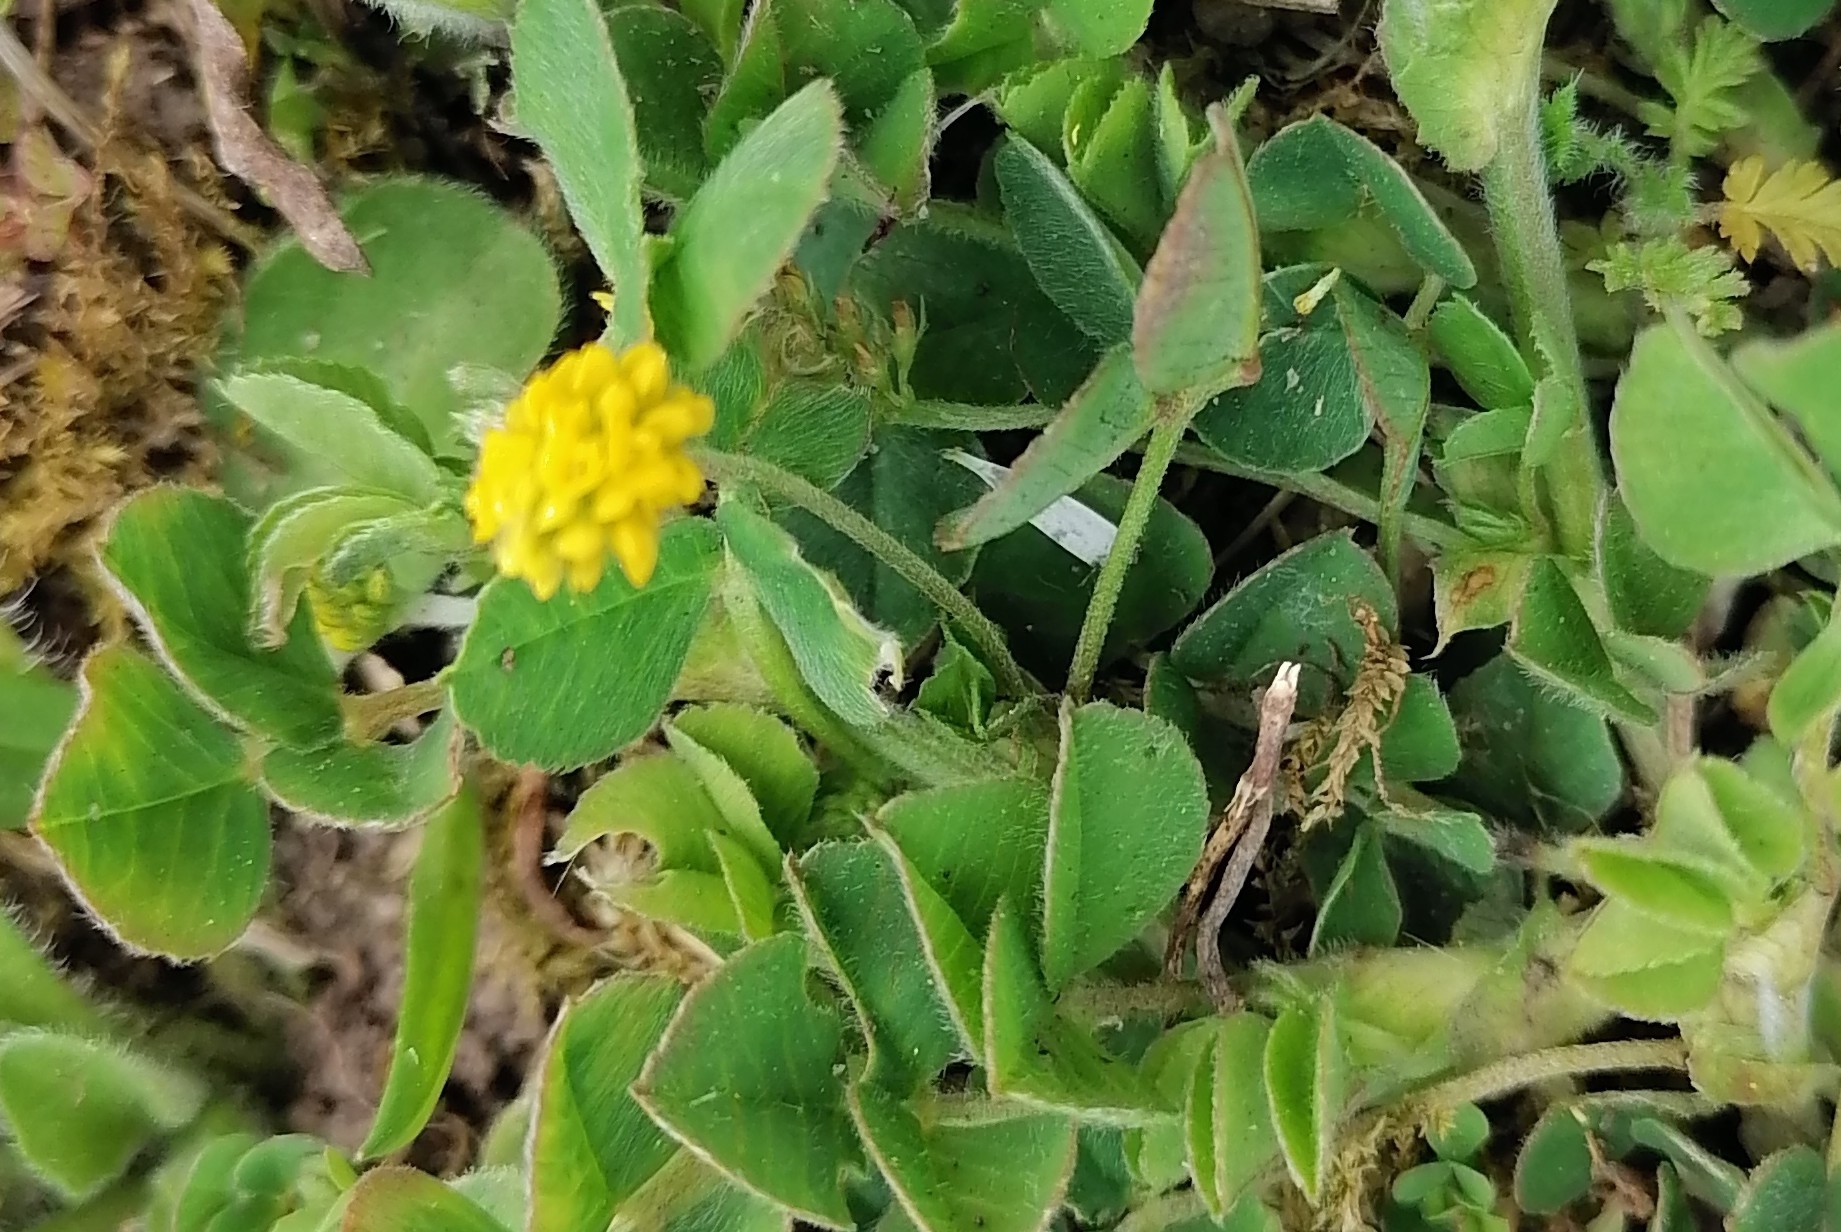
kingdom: Plantae
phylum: Tracheophyta
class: Magnoliopsida
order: Fabales
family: Fabaceae
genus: Medicago
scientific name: Medicago lupulina
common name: Black medick
